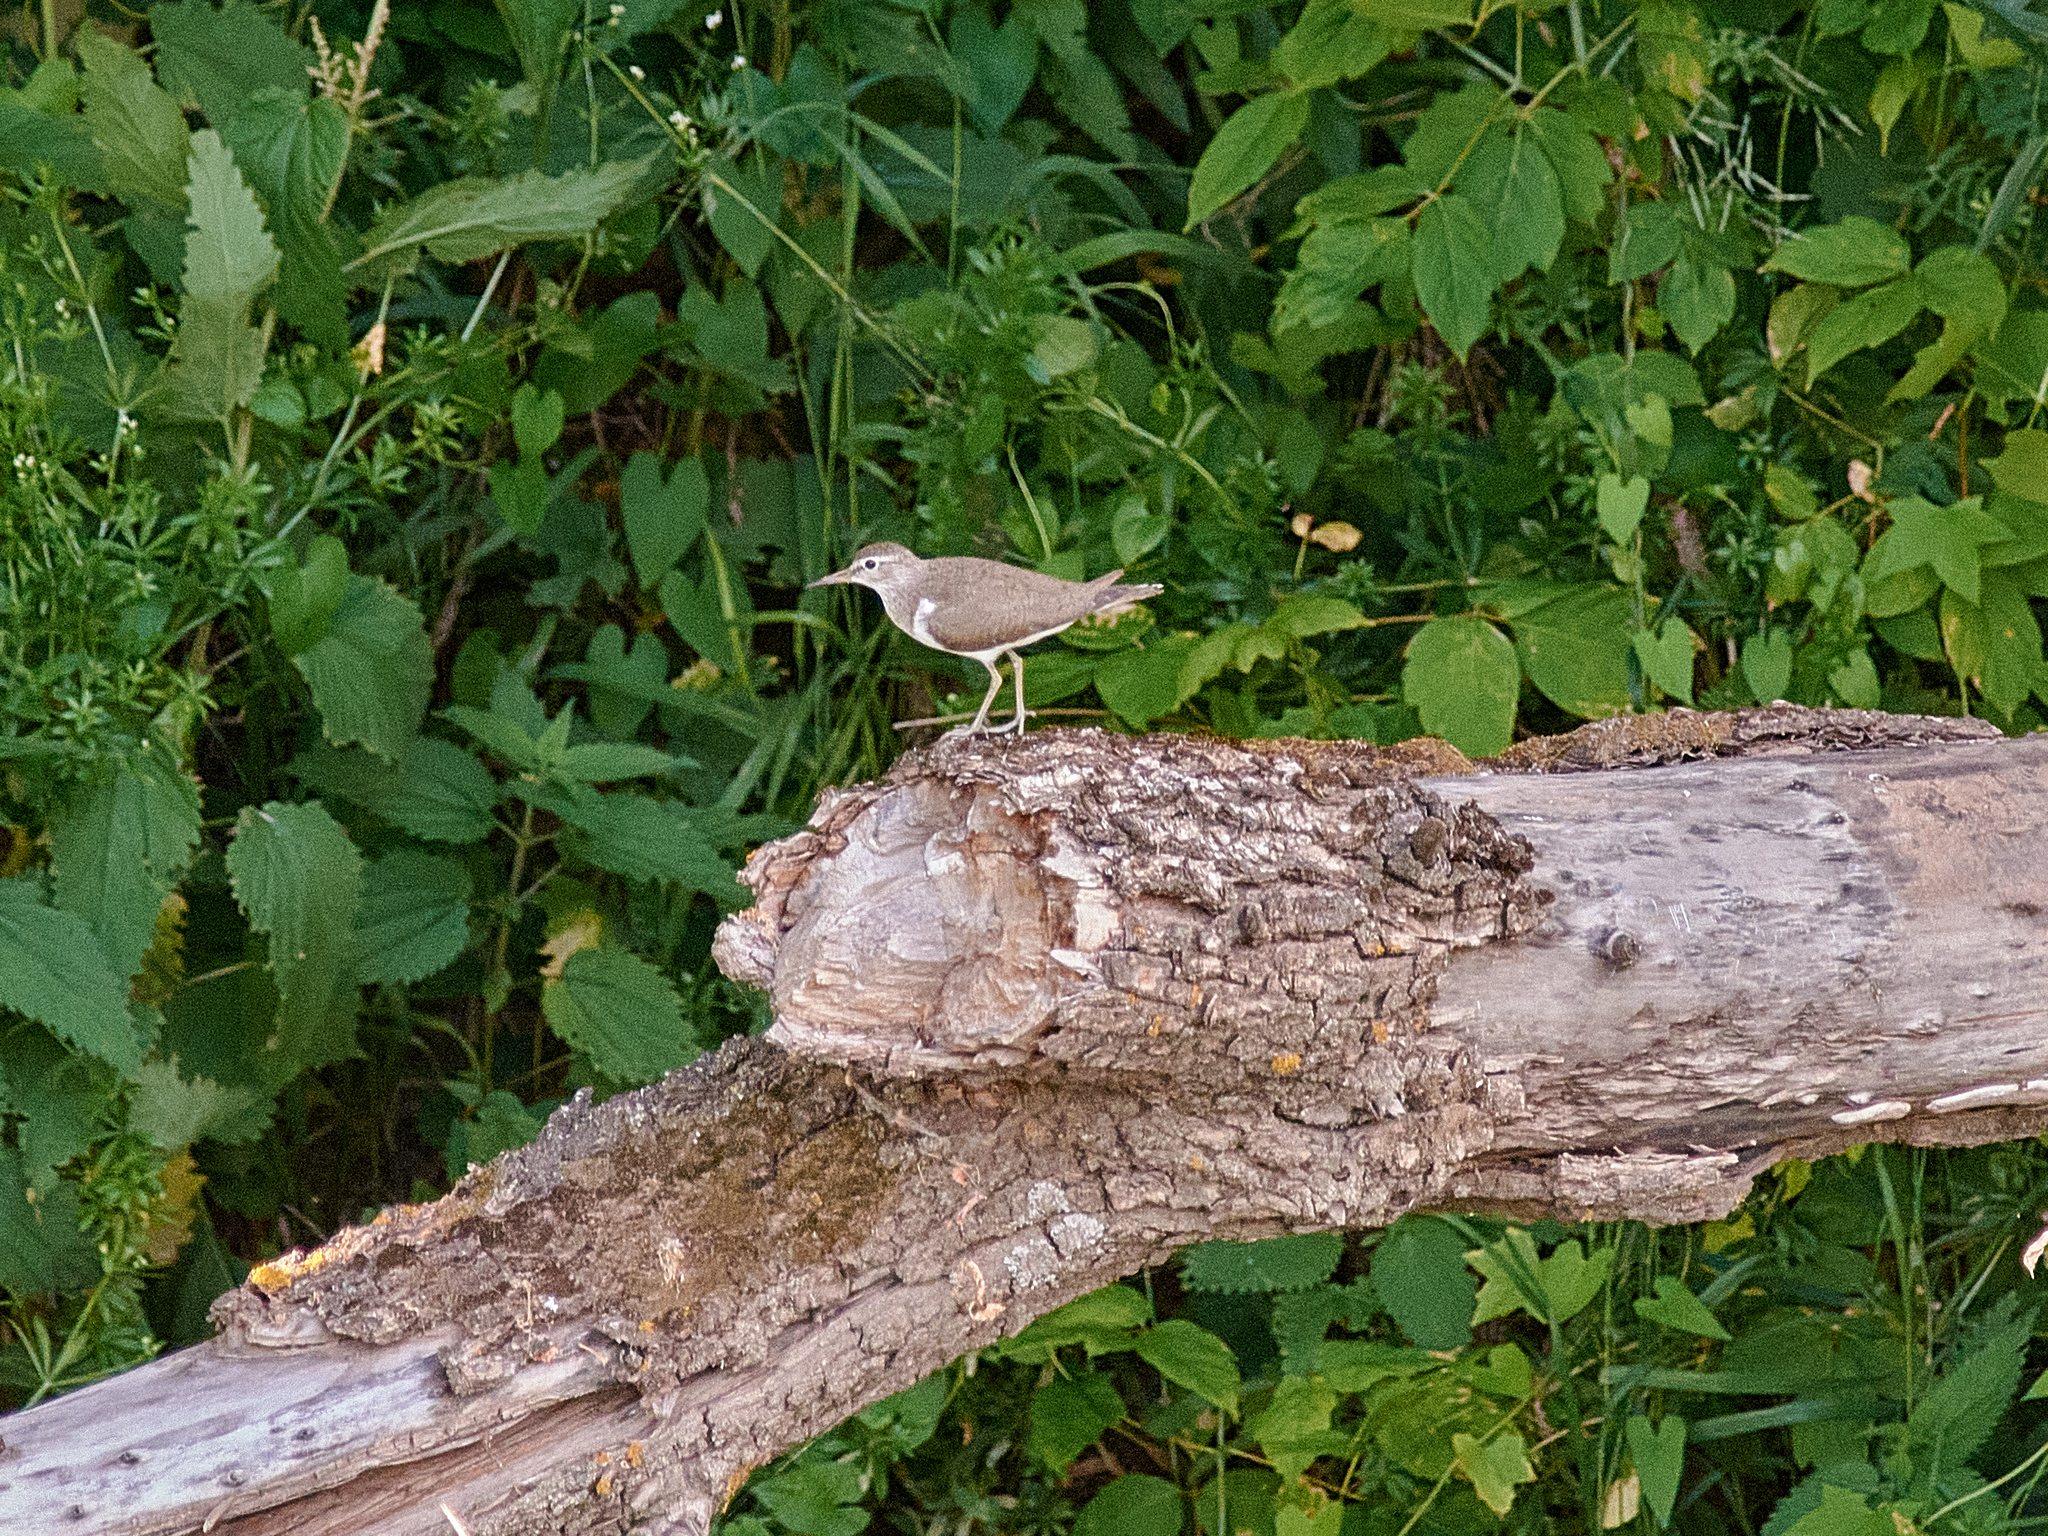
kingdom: Animalia
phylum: Chordata
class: Aves
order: Charadriiformes
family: Scolopacidae
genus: Actitis
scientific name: Actitis hypoleucos
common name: Common sandpiper
